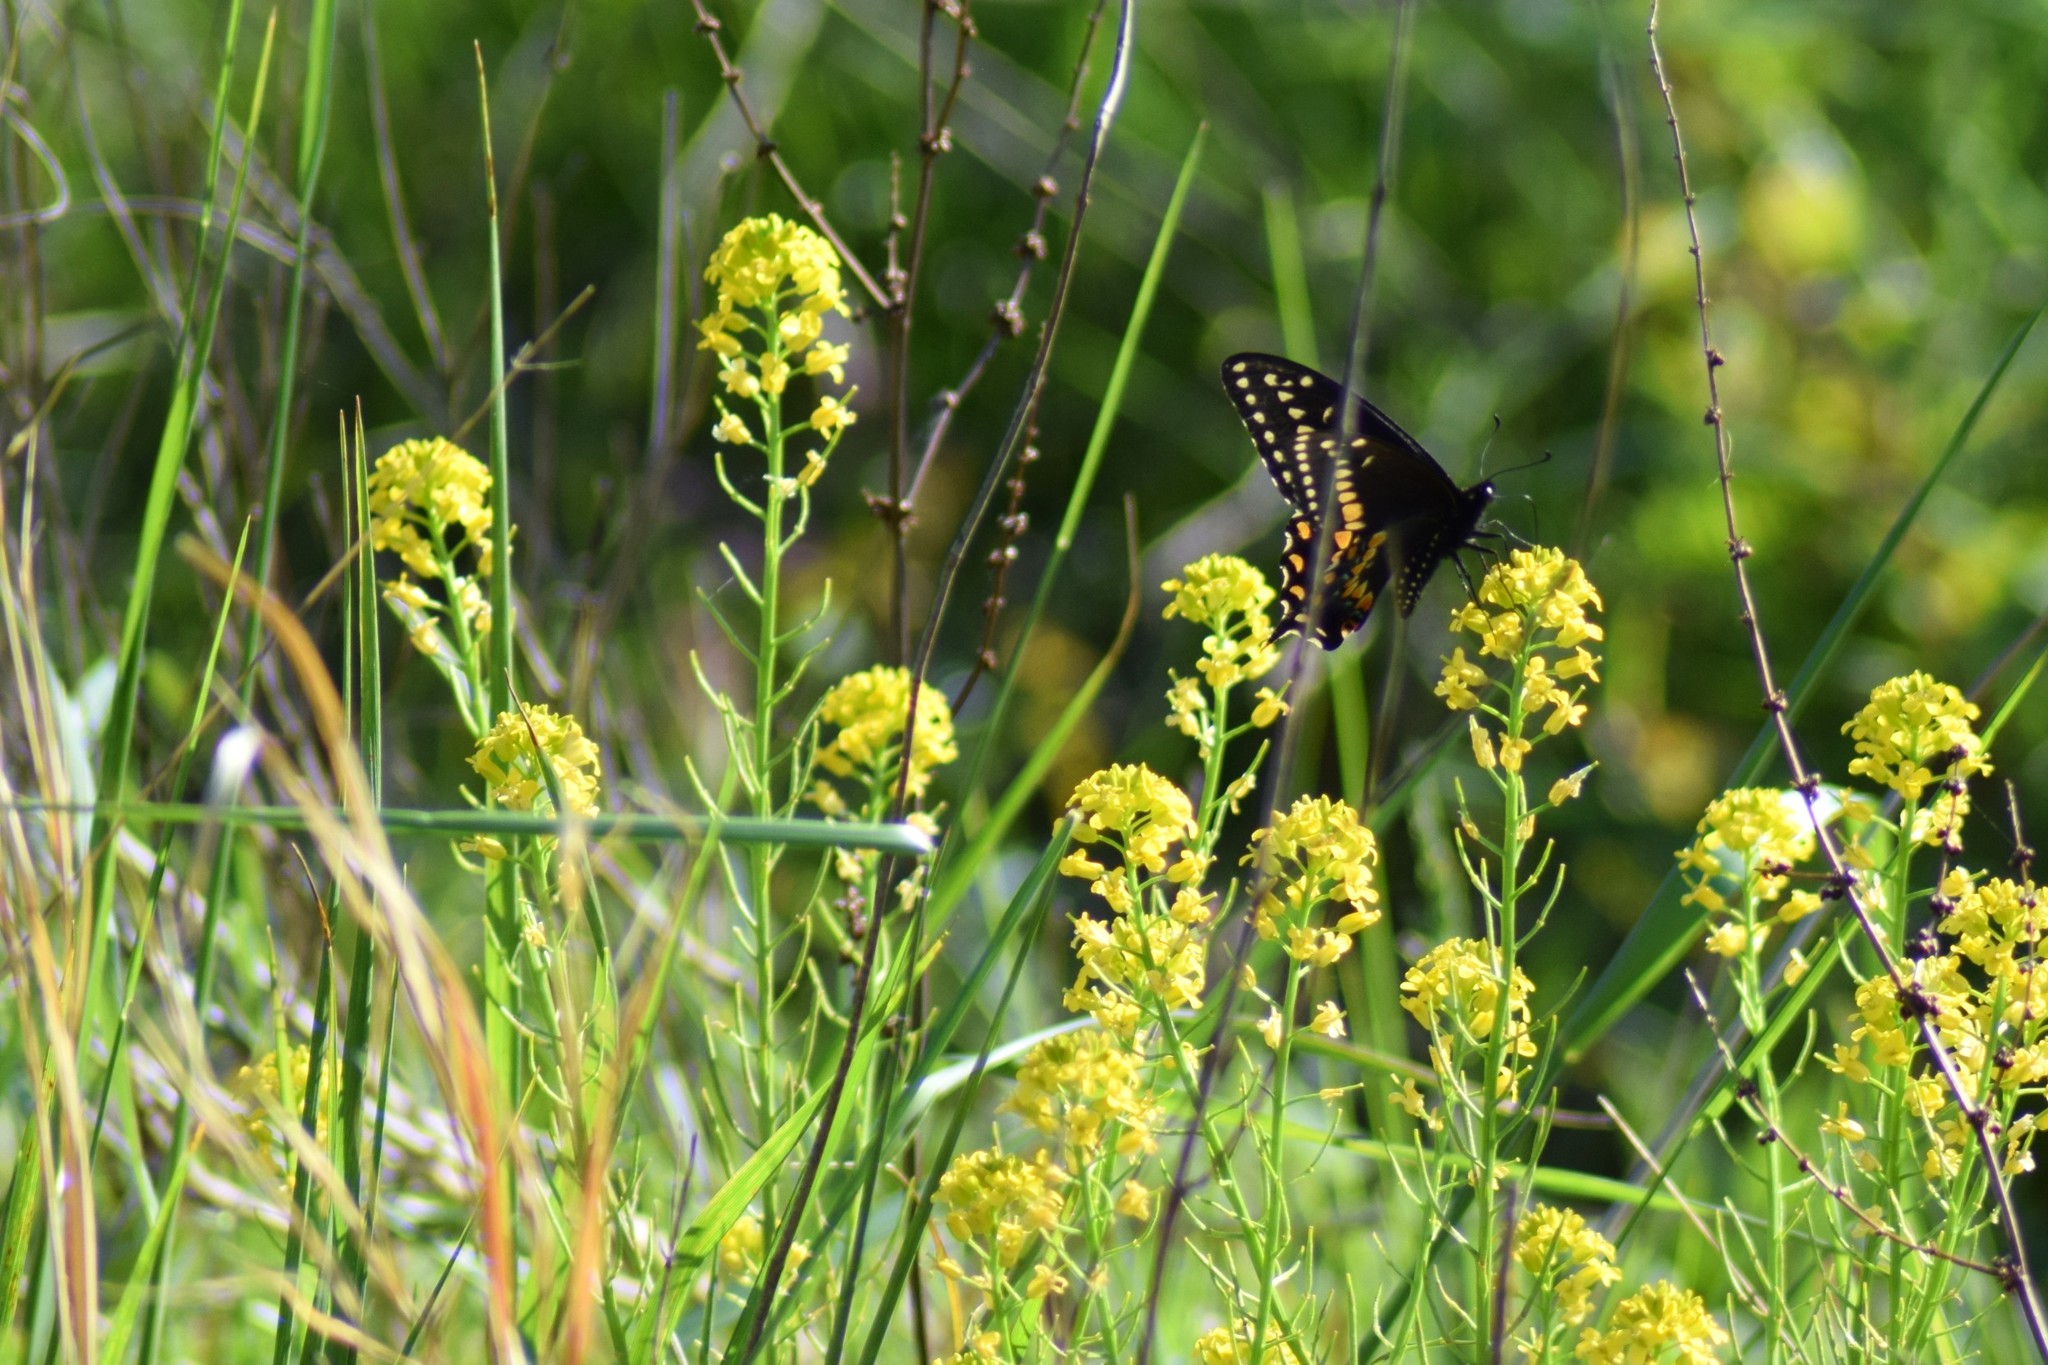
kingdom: Animalia
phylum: Arthropoda
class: Insecta
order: Lepidoptera
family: Papilionidae
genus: Papilio
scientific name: Papilio polyxenes
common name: Black swallowtail
